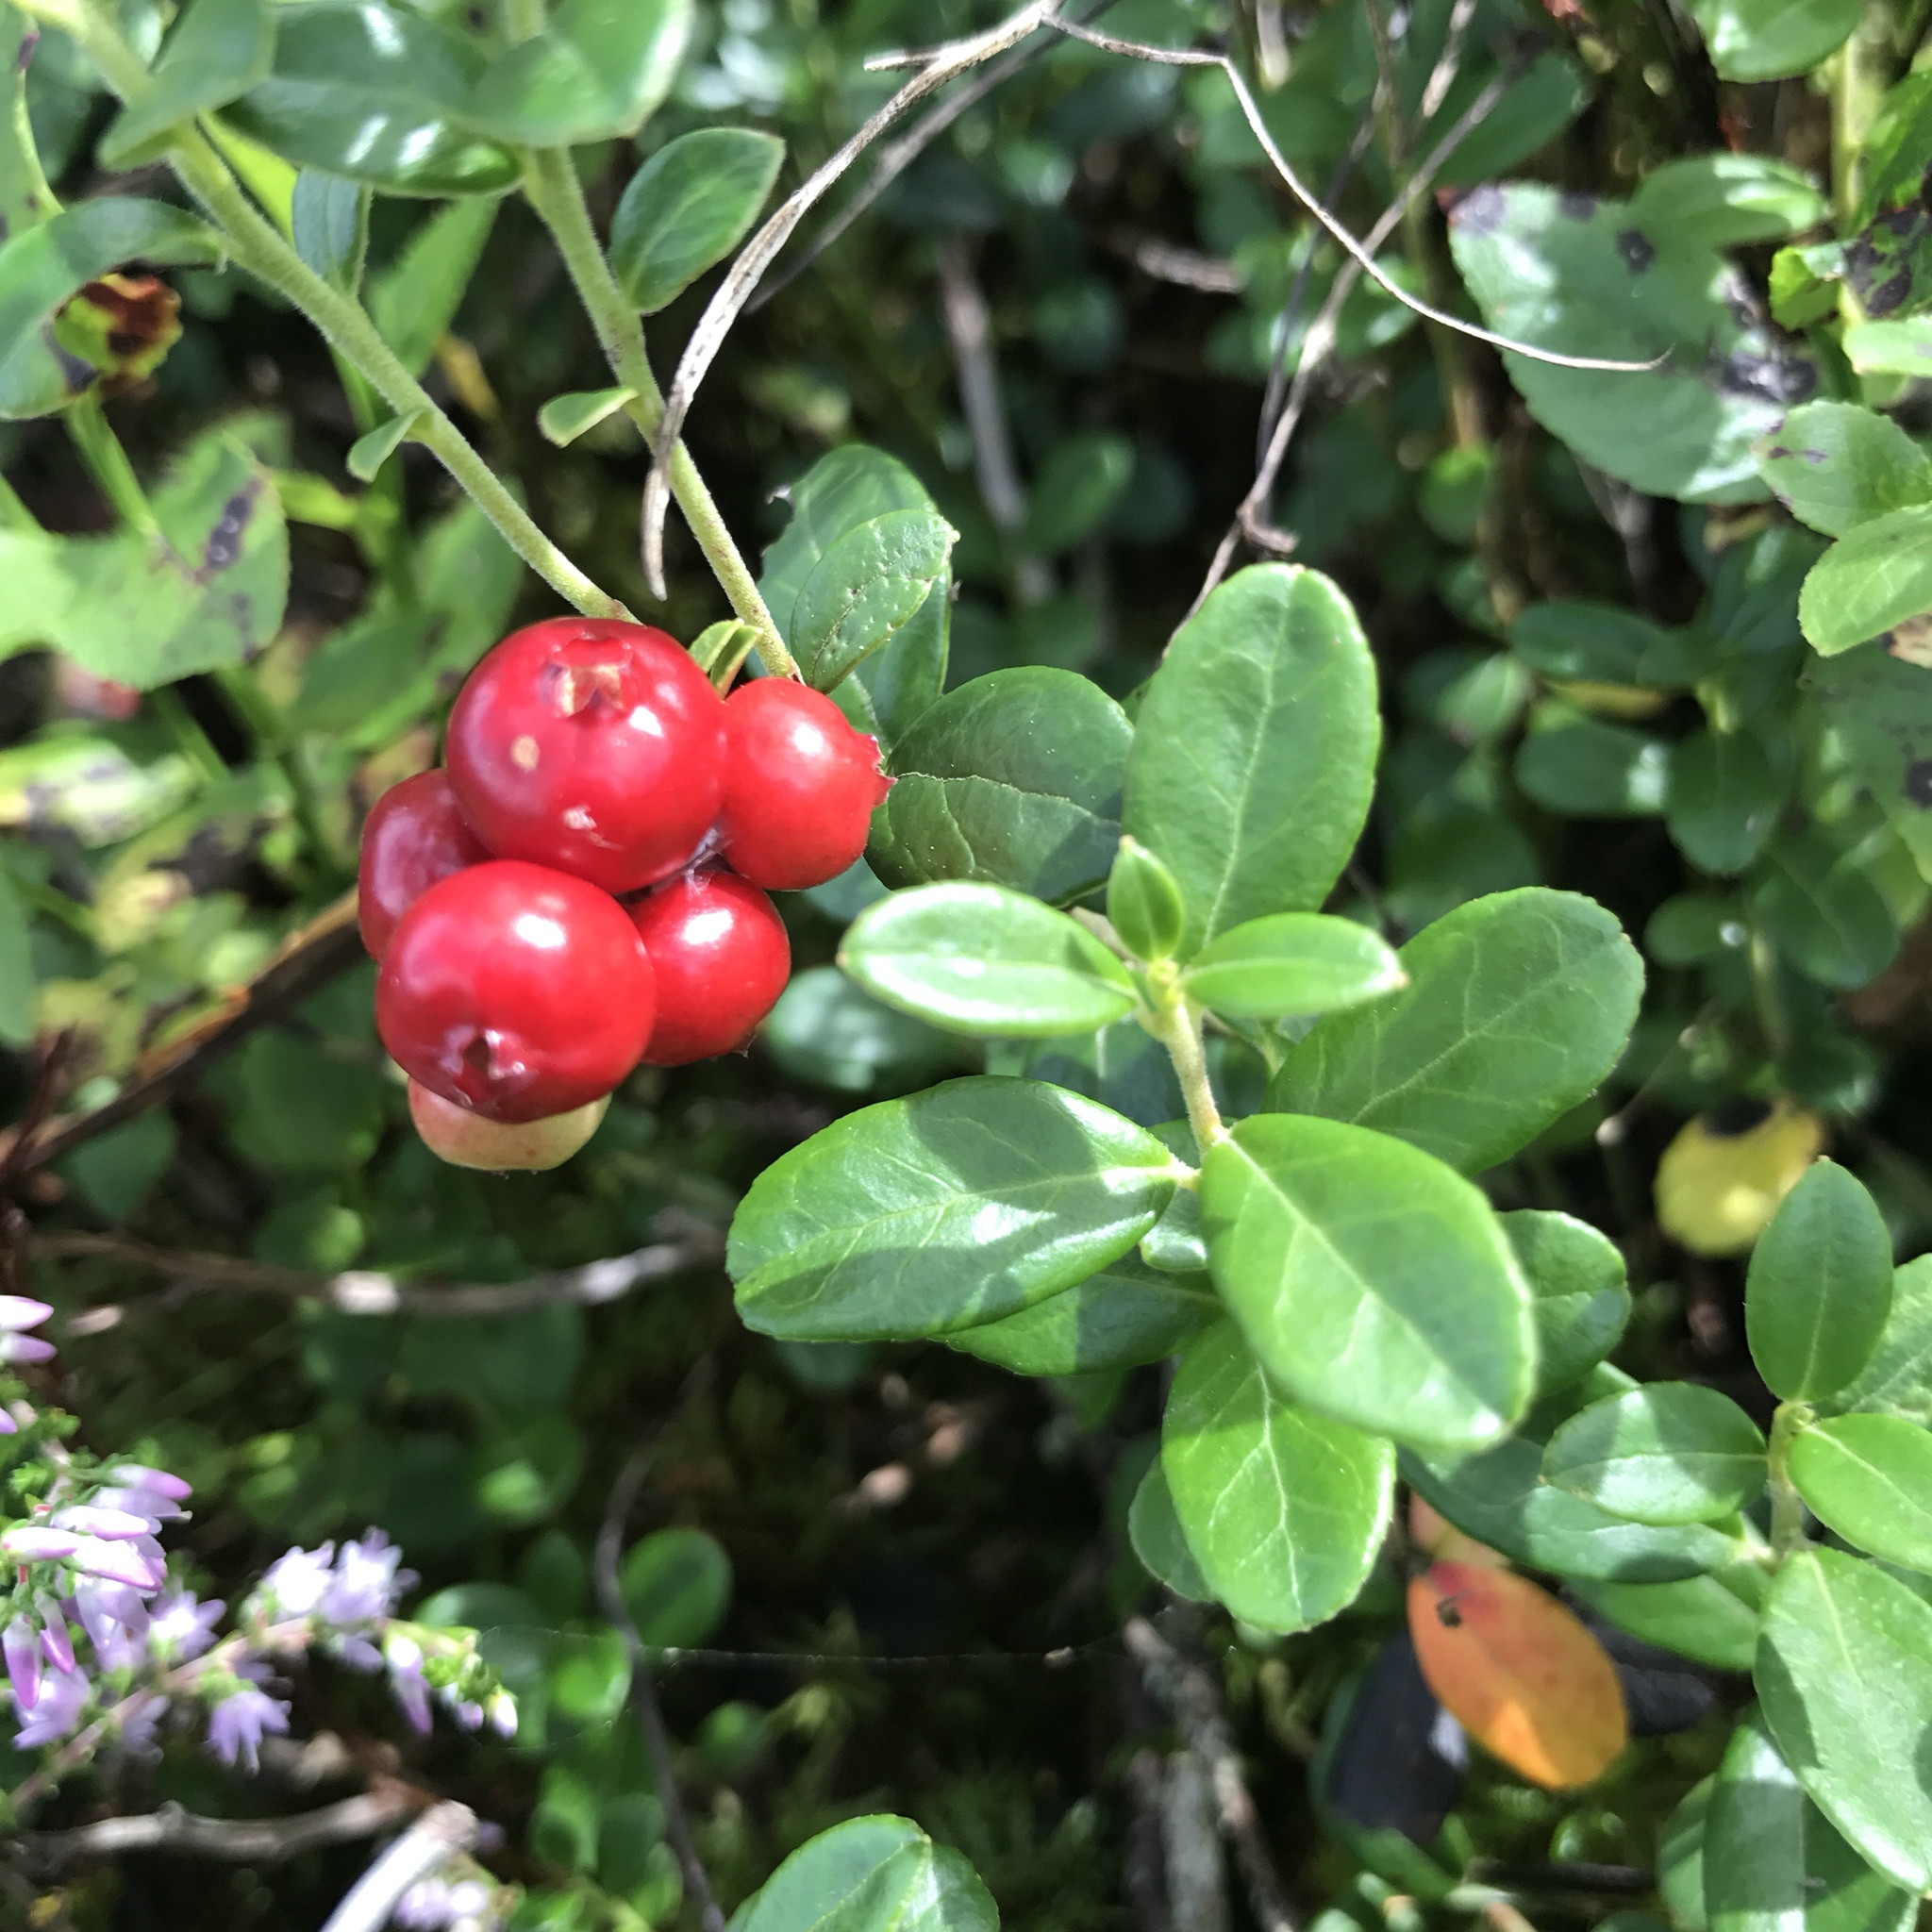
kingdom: Plantae
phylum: Tracheophyta
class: Magnoliopsida
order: Ericales
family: Ericaceae
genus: Vaccinium
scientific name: Vaccinium vitis-idaea
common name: Cowberry
